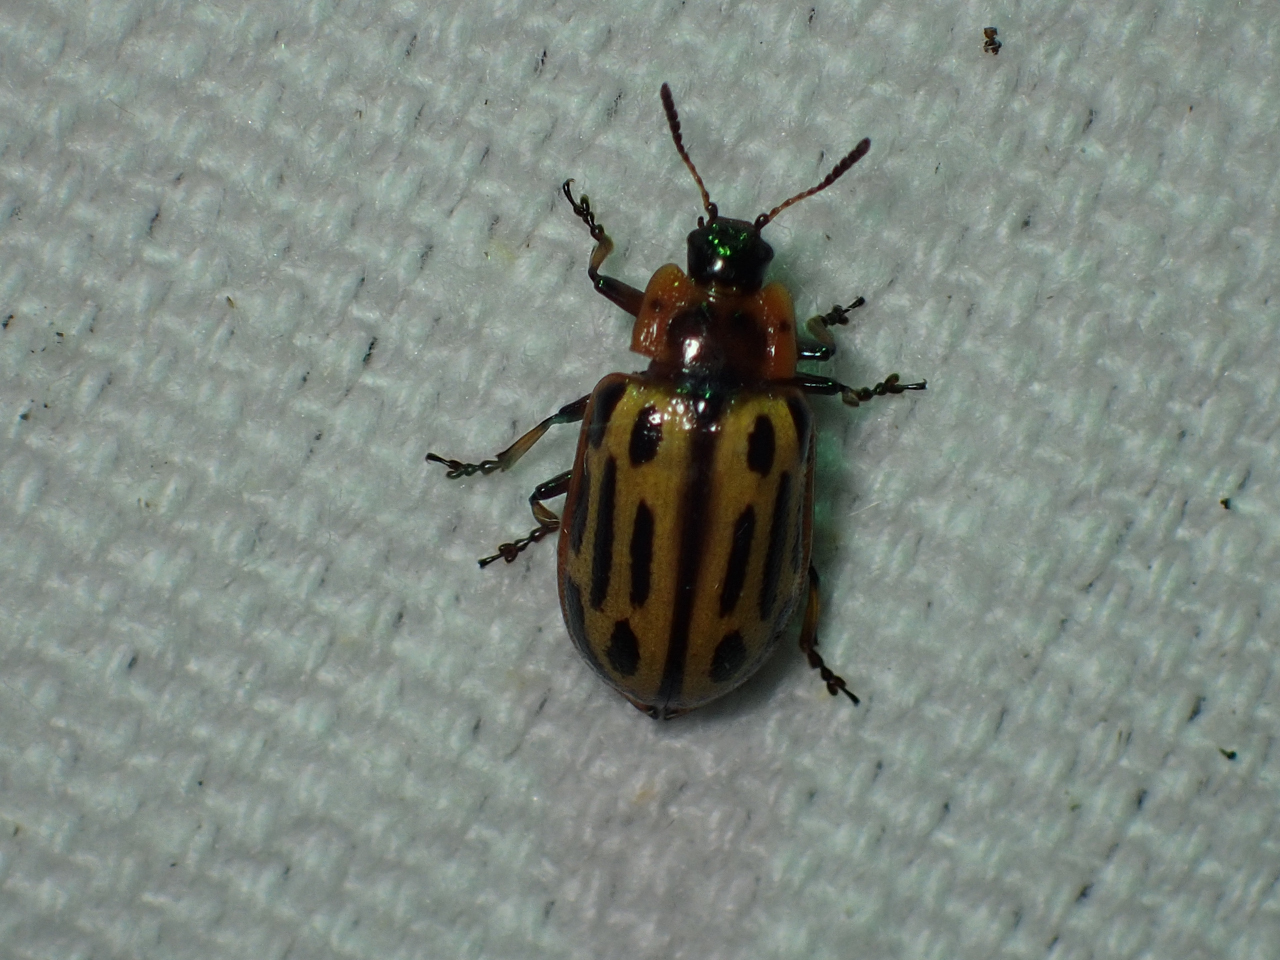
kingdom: Animalia
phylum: Arthropoda
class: Insecta
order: Coleoptera
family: Chrysomelidae
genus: Aethiopocassis
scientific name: Aethiopocassis scripta
